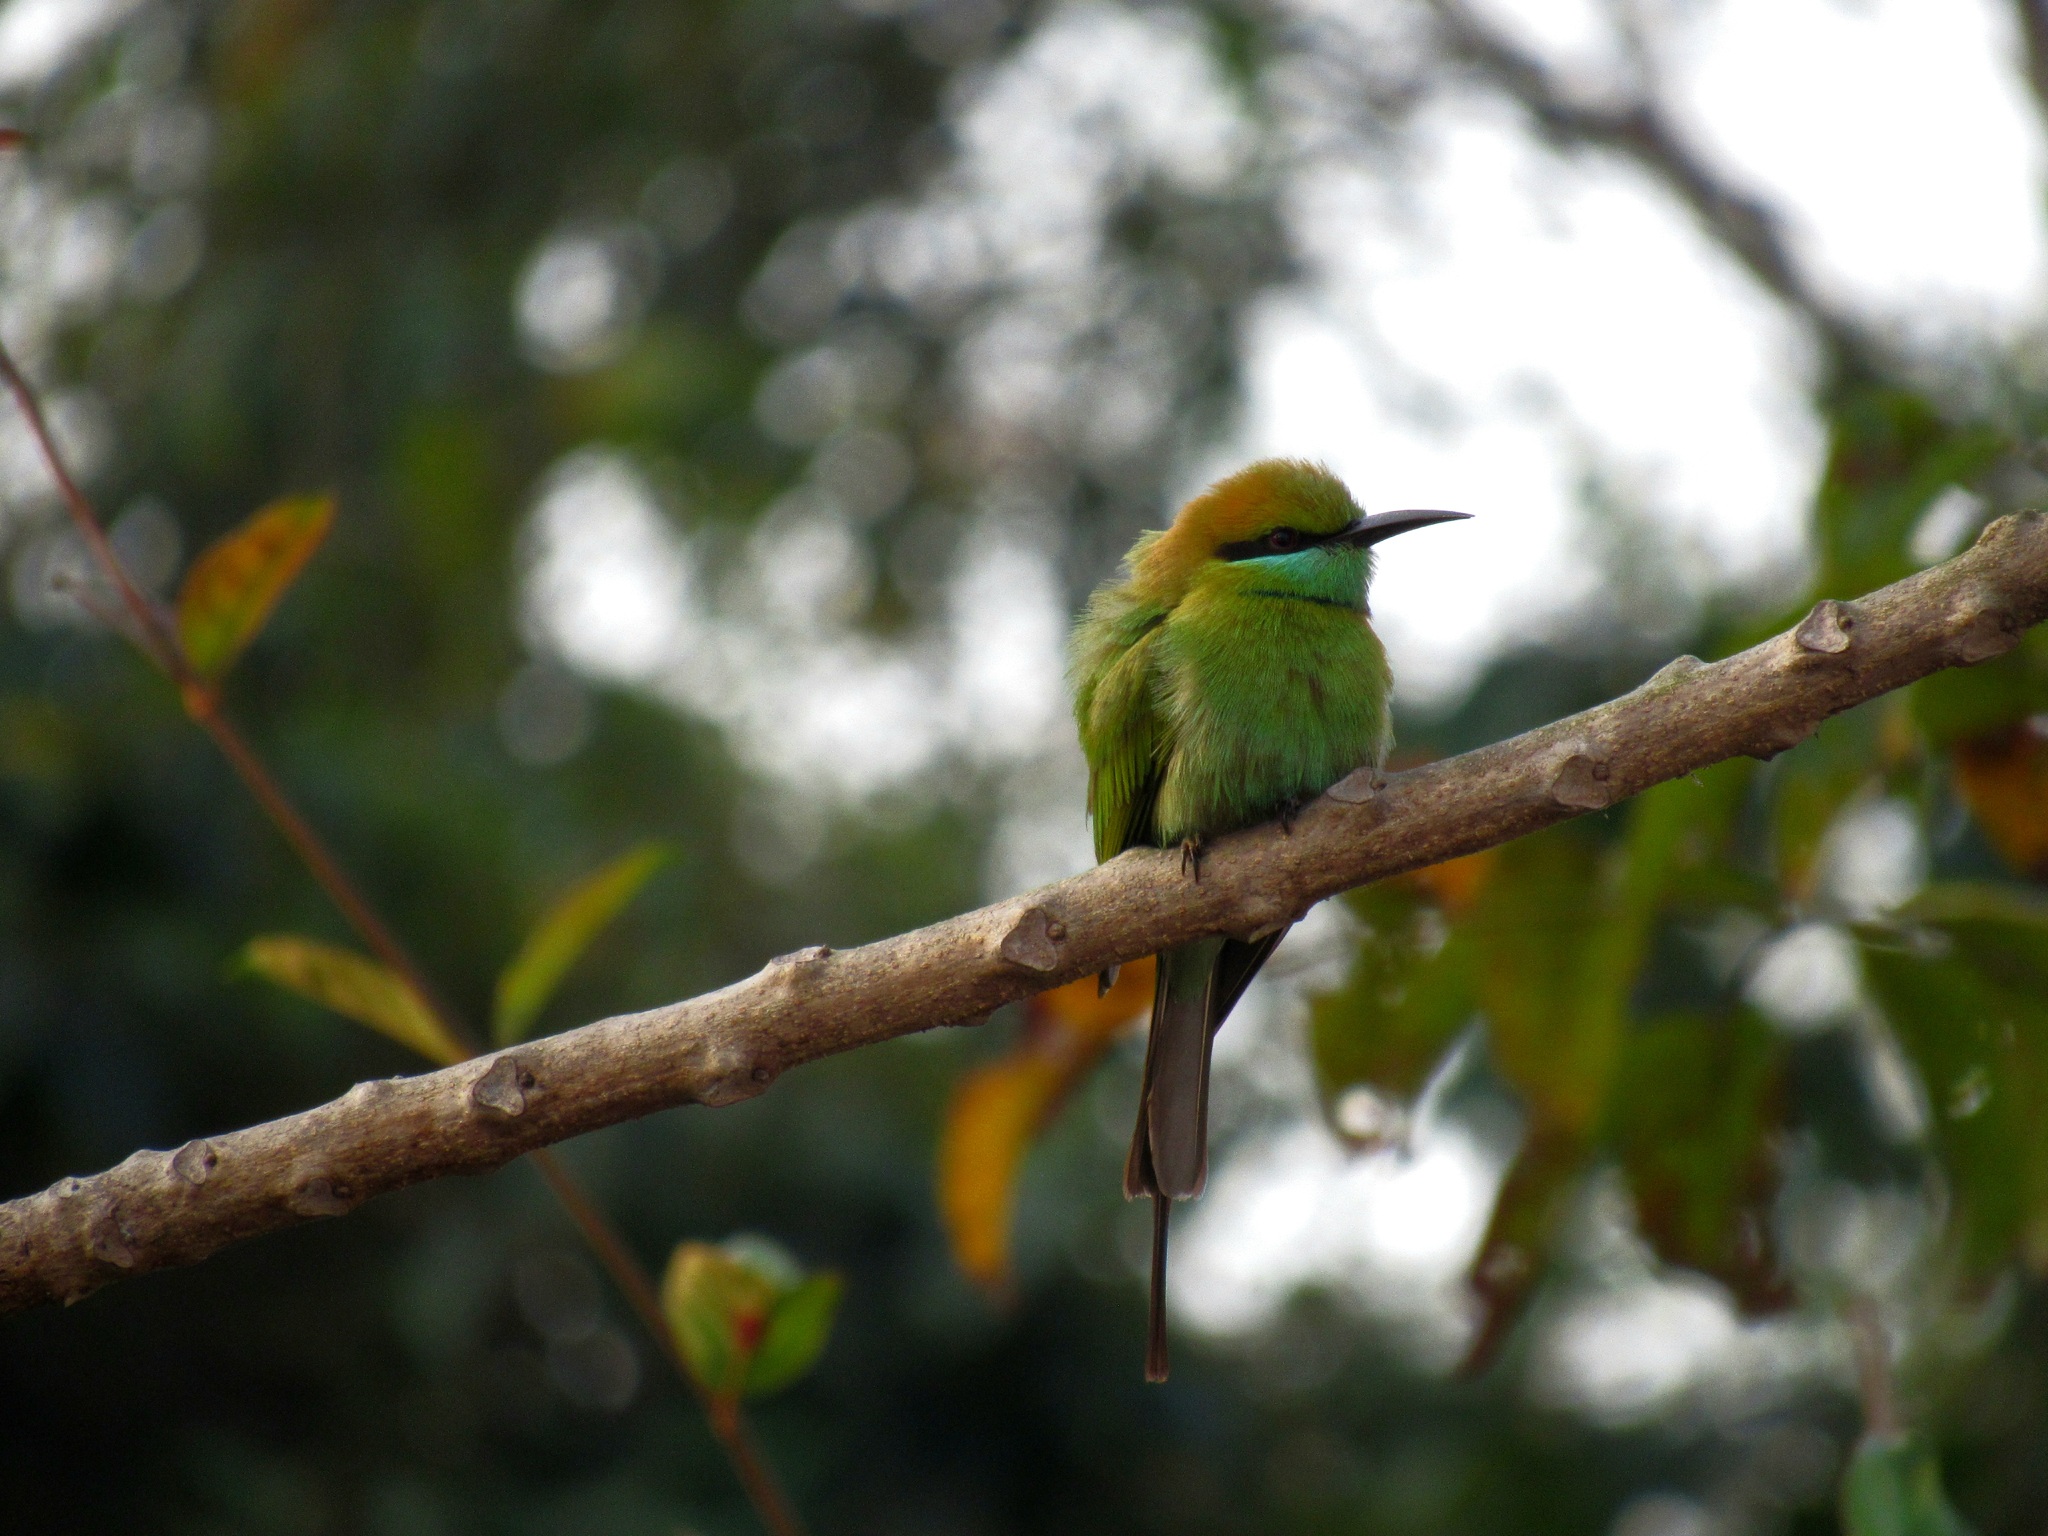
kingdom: Animalia
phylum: Chordata
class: Aves
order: Coraciiformes
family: Meropidae
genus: Merops
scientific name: Merops orientalis
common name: Green bee-eater
